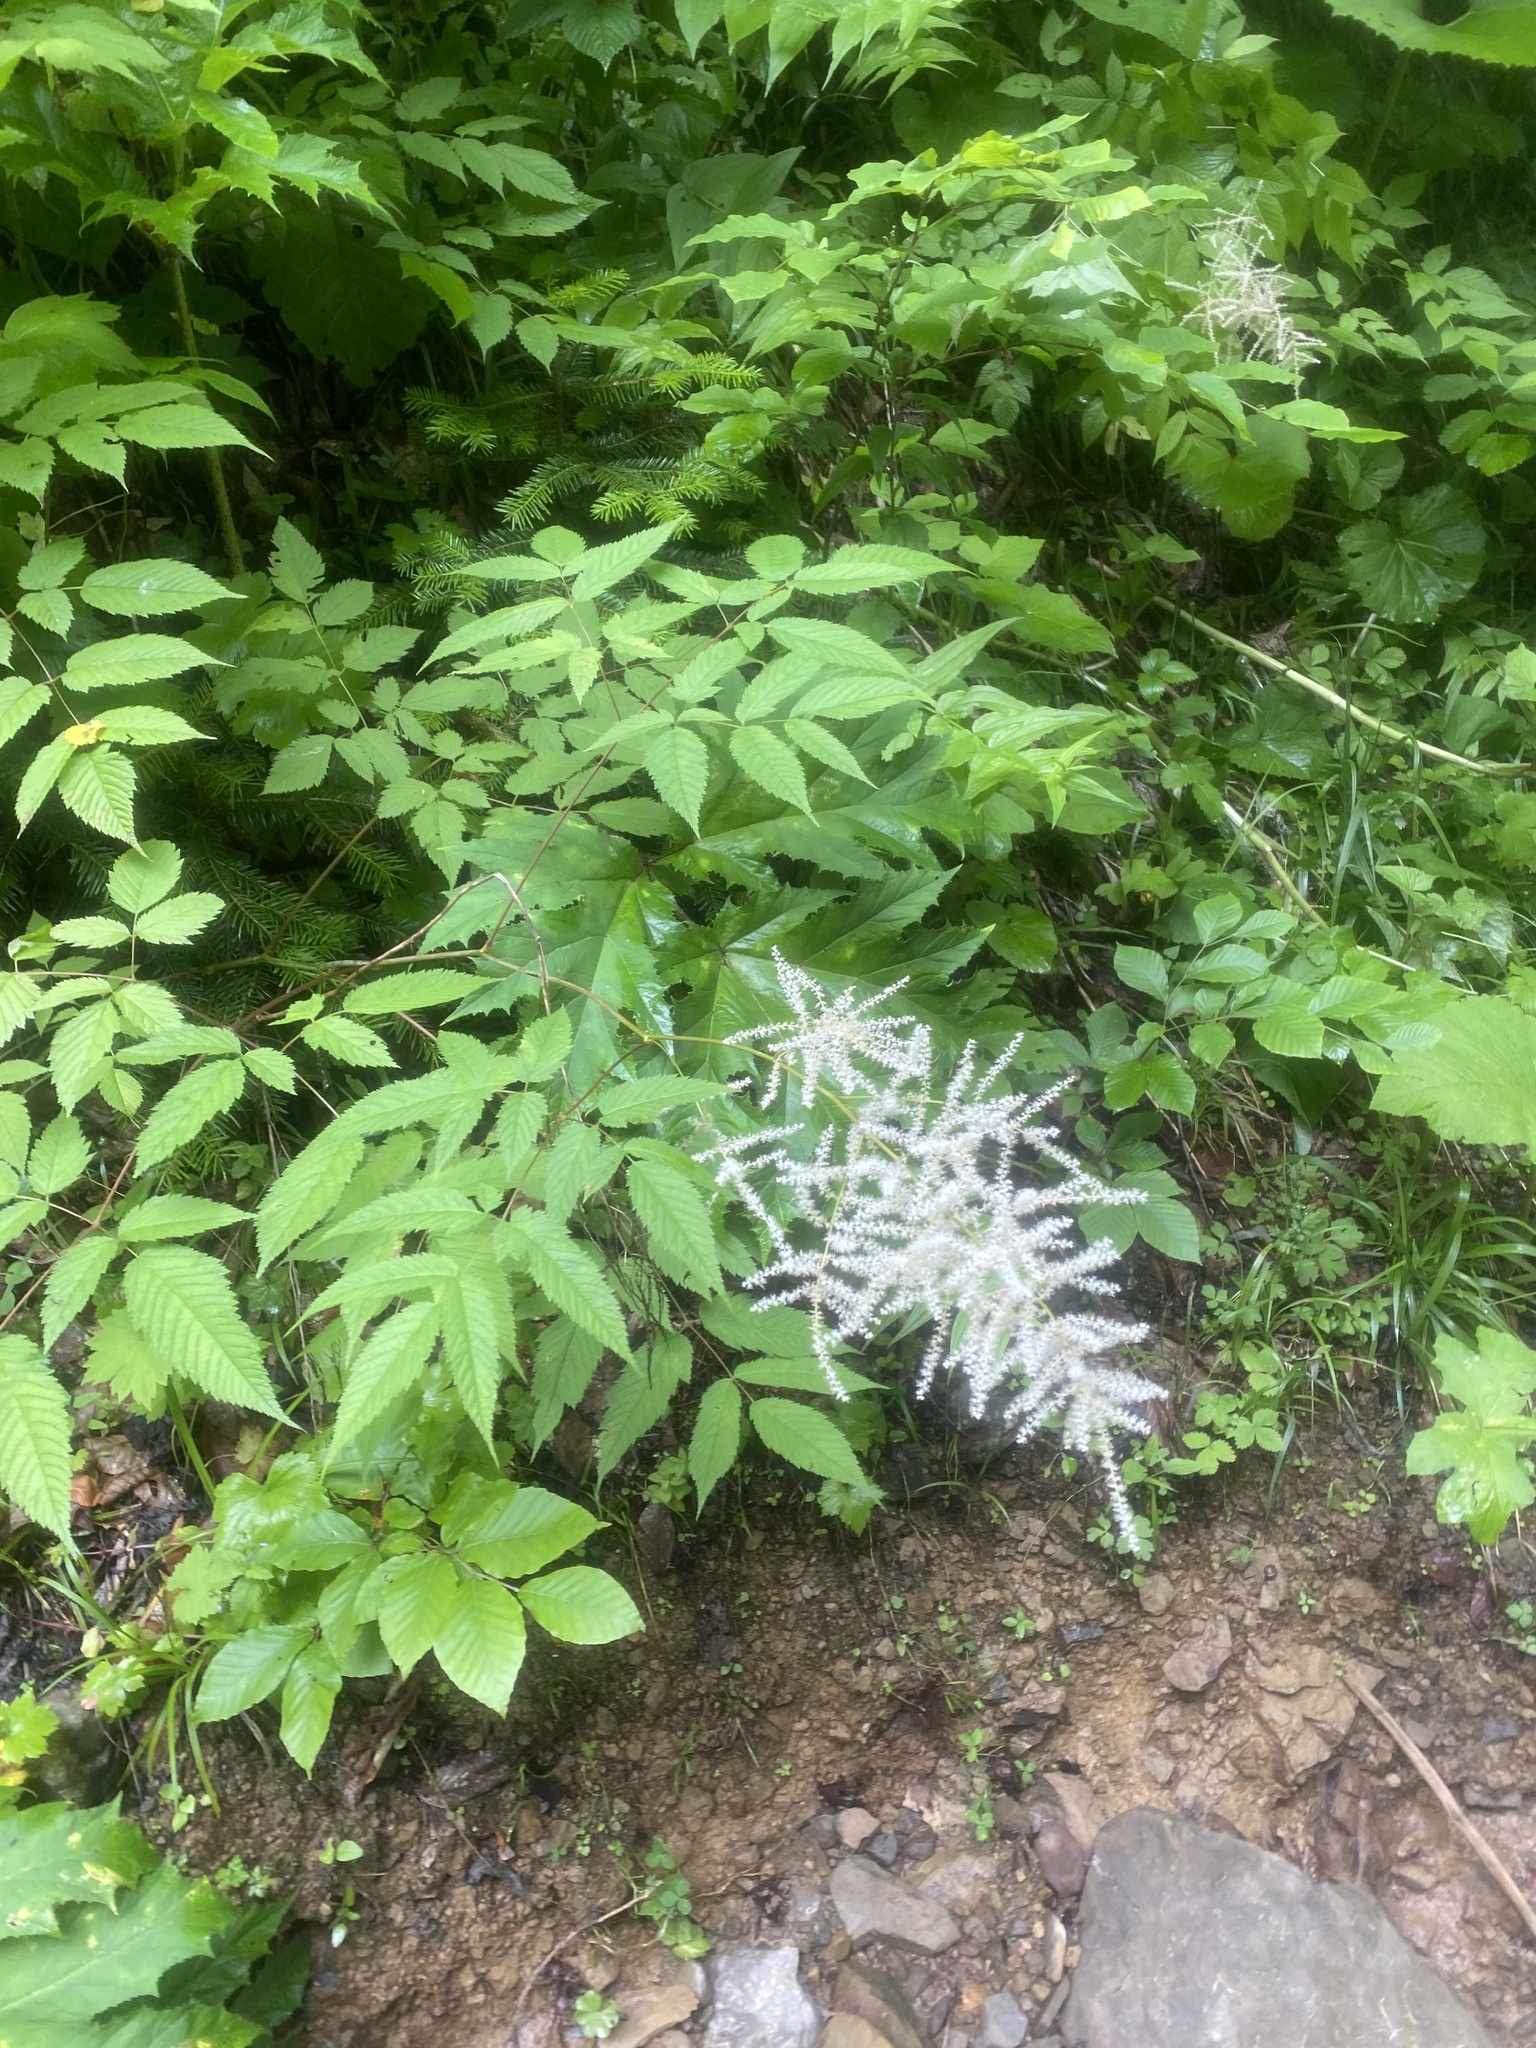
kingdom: Plantae
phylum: Tracheophyta
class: Magnoliopsida
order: Rosales
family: Rosaceae
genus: Aruncus
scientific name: Aruncus dioicus
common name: Buck's-beard
